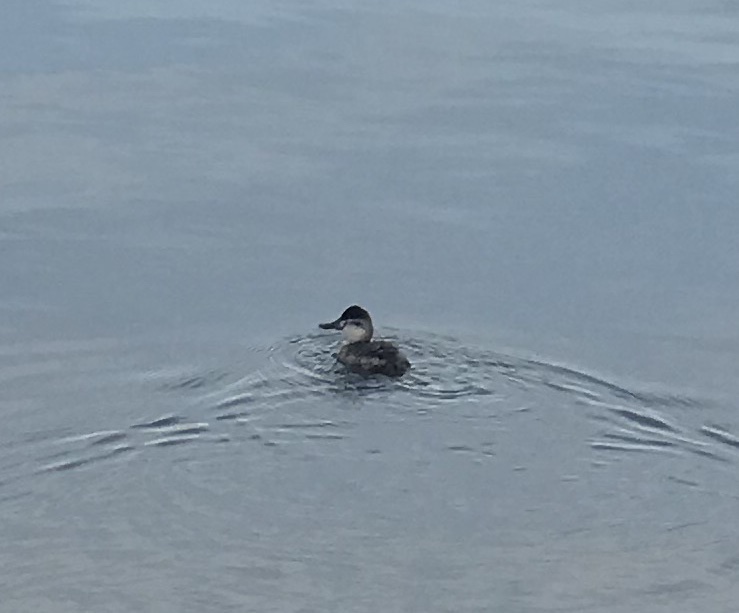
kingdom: Animalia
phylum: Chordata
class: Aves
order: Anseriformes
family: Anatidae
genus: Oxyura
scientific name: Oxyura jamaicensis
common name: Ruddy duck
